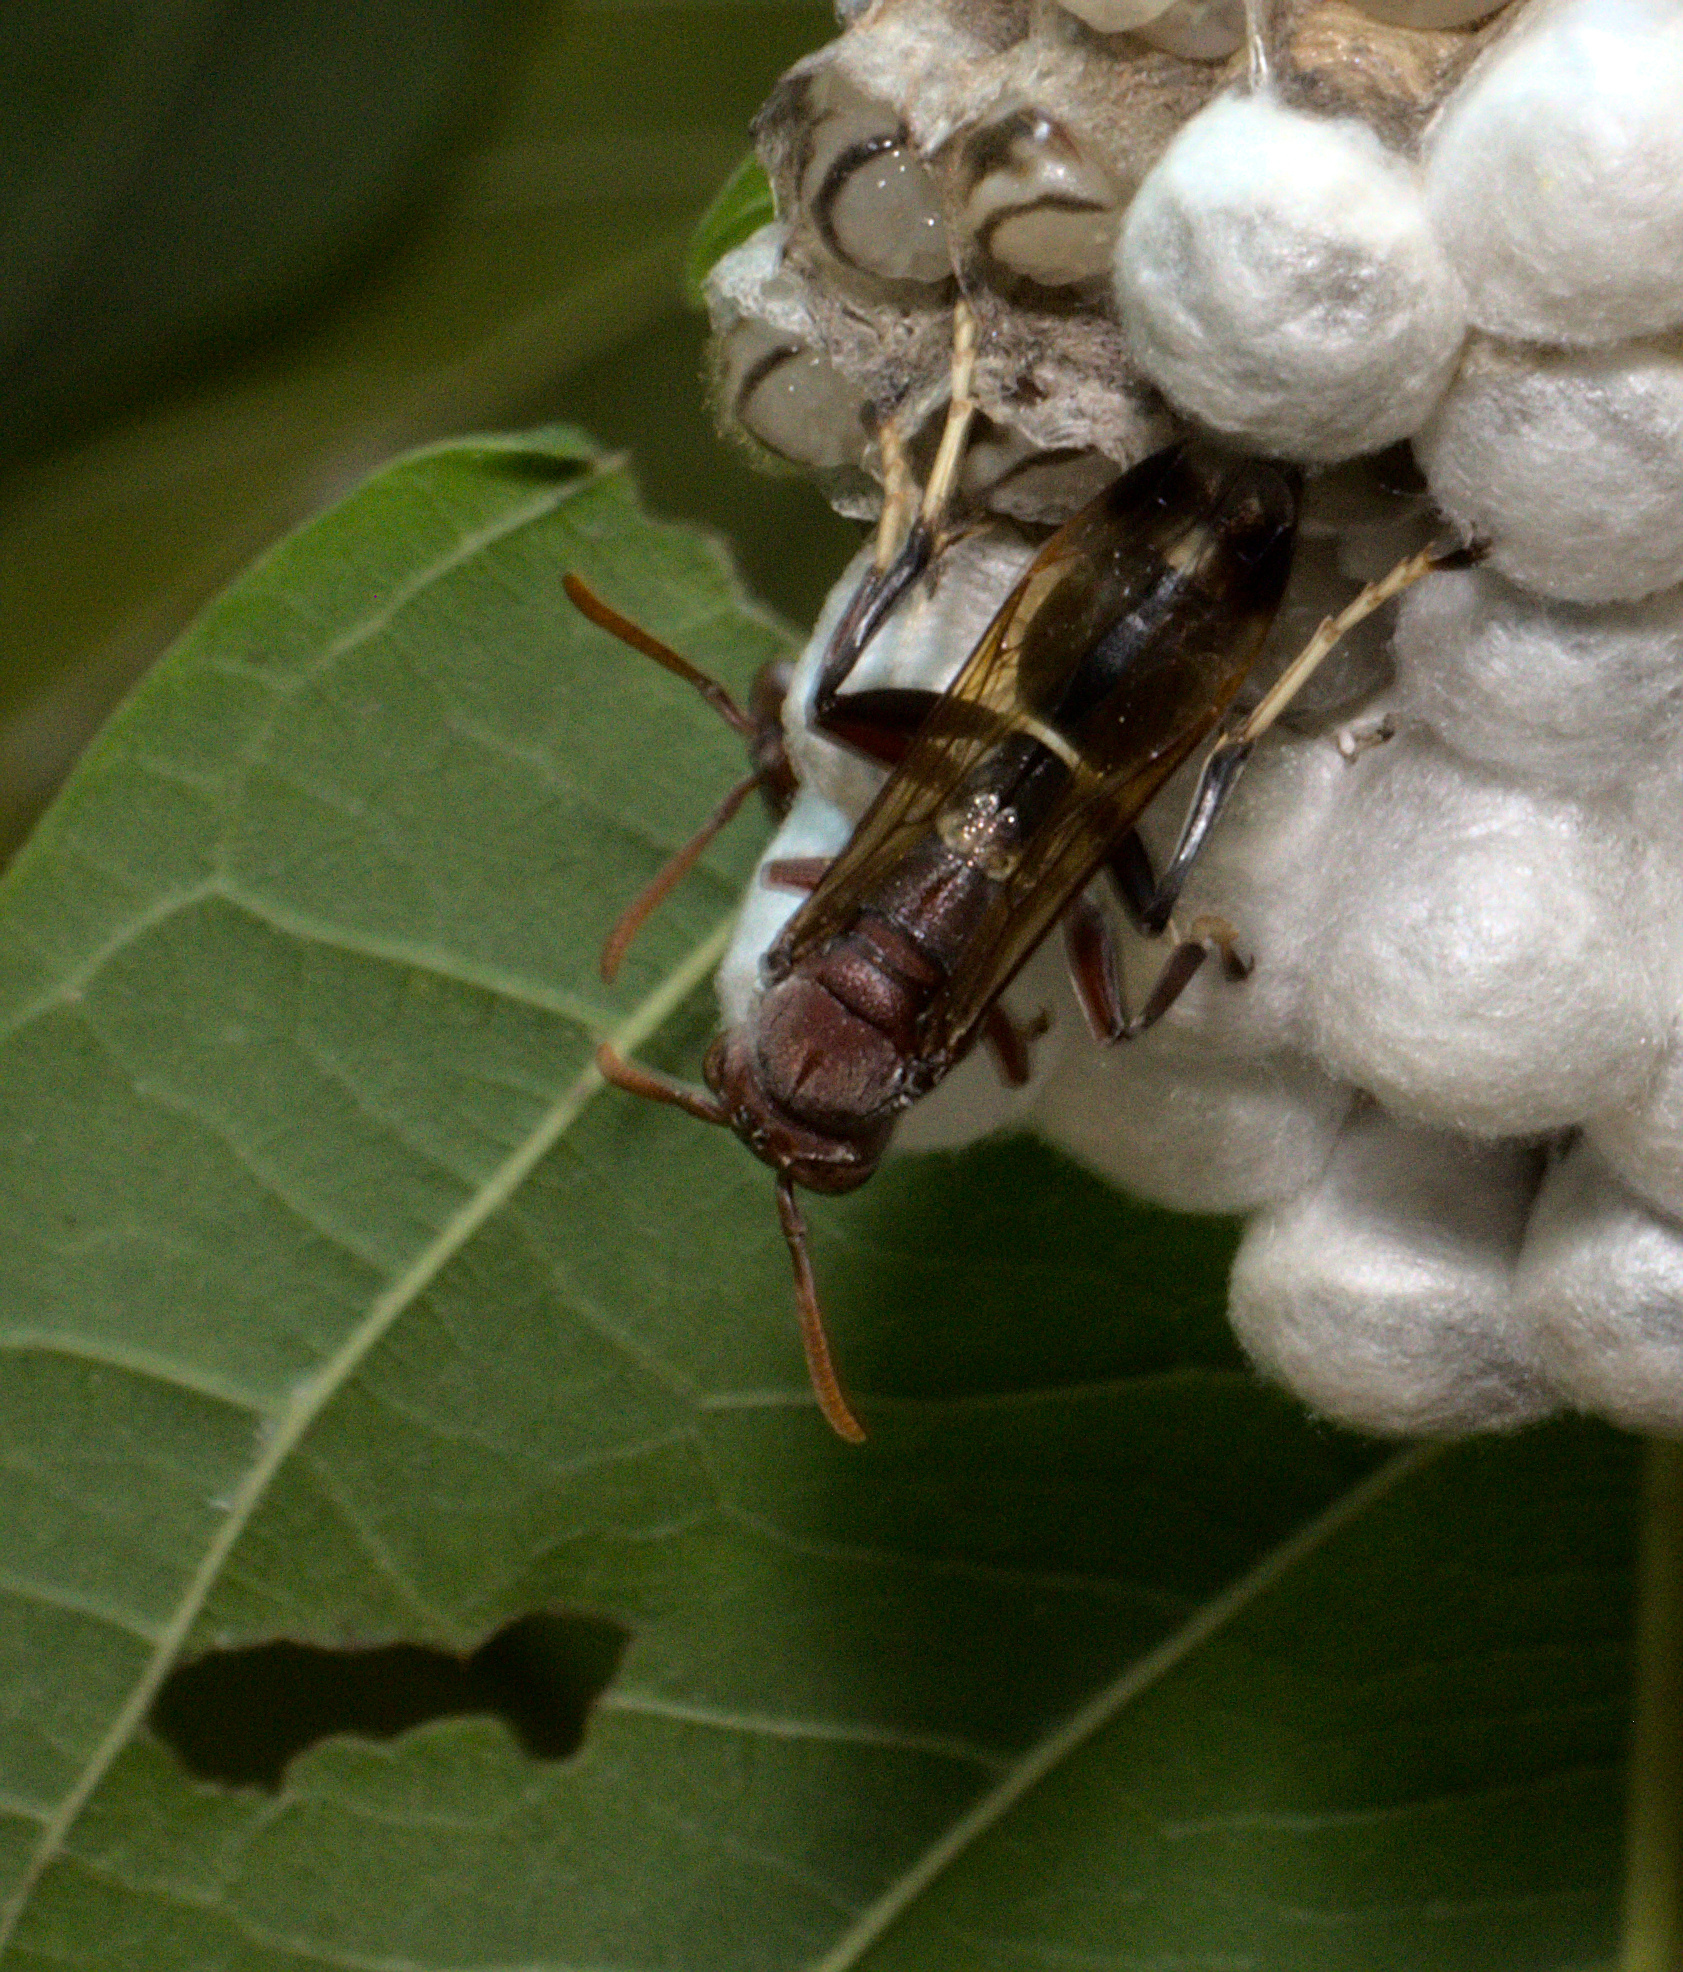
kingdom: Animalia
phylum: Arthropoda
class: Insecta
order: Hymenoptera
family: Eumenidae
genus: Polistes
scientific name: Polistes brunus
